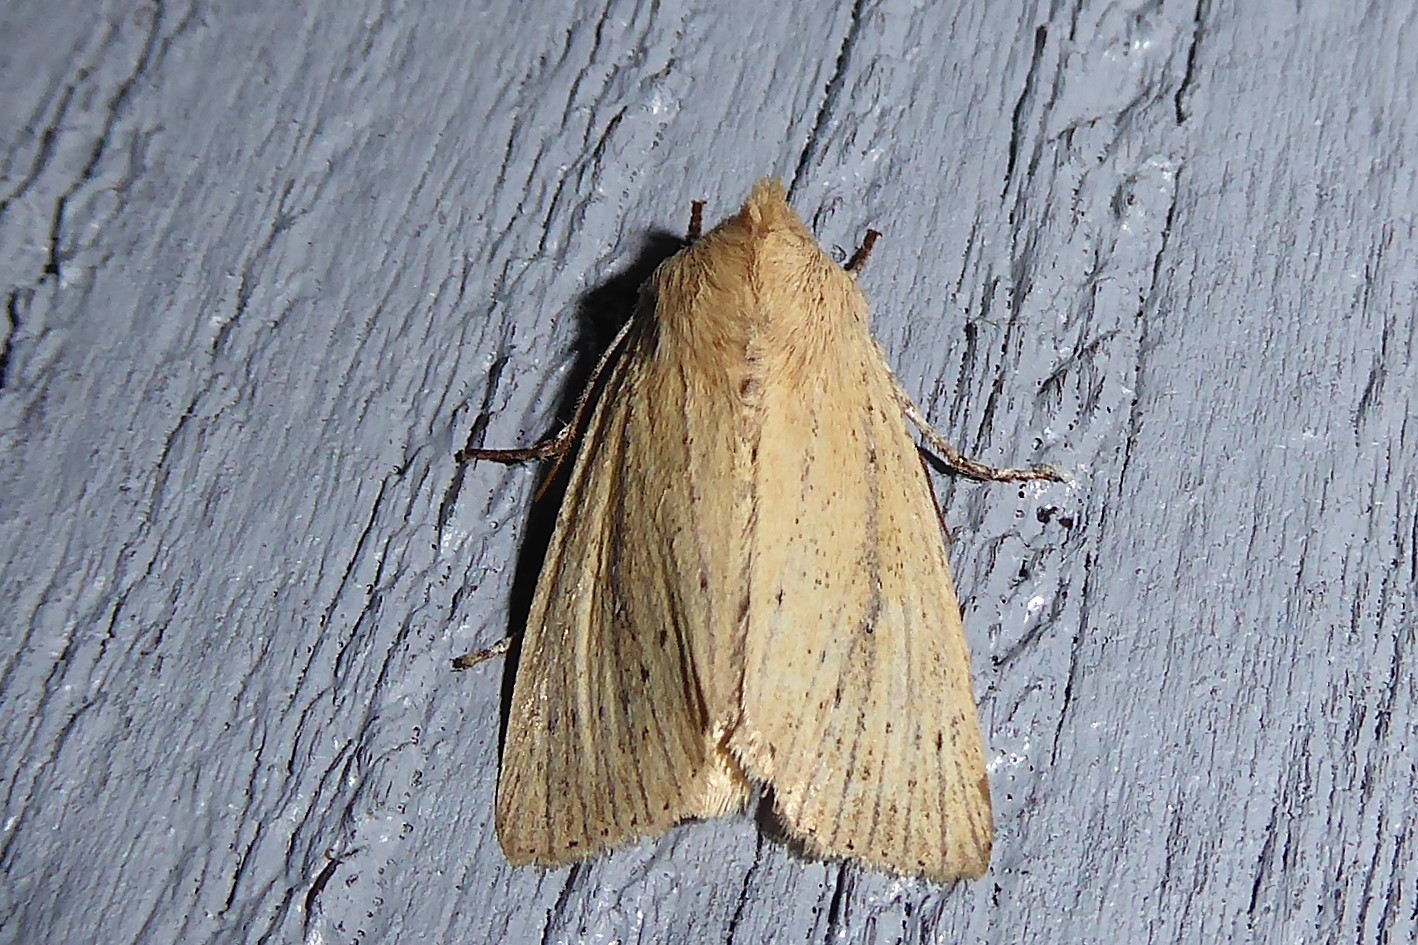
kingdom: Animalia
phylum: Arthropoda
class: Insecta
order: Lepidoptera
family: Noctuidae
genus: Ichneutica
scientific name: Ichneutica
